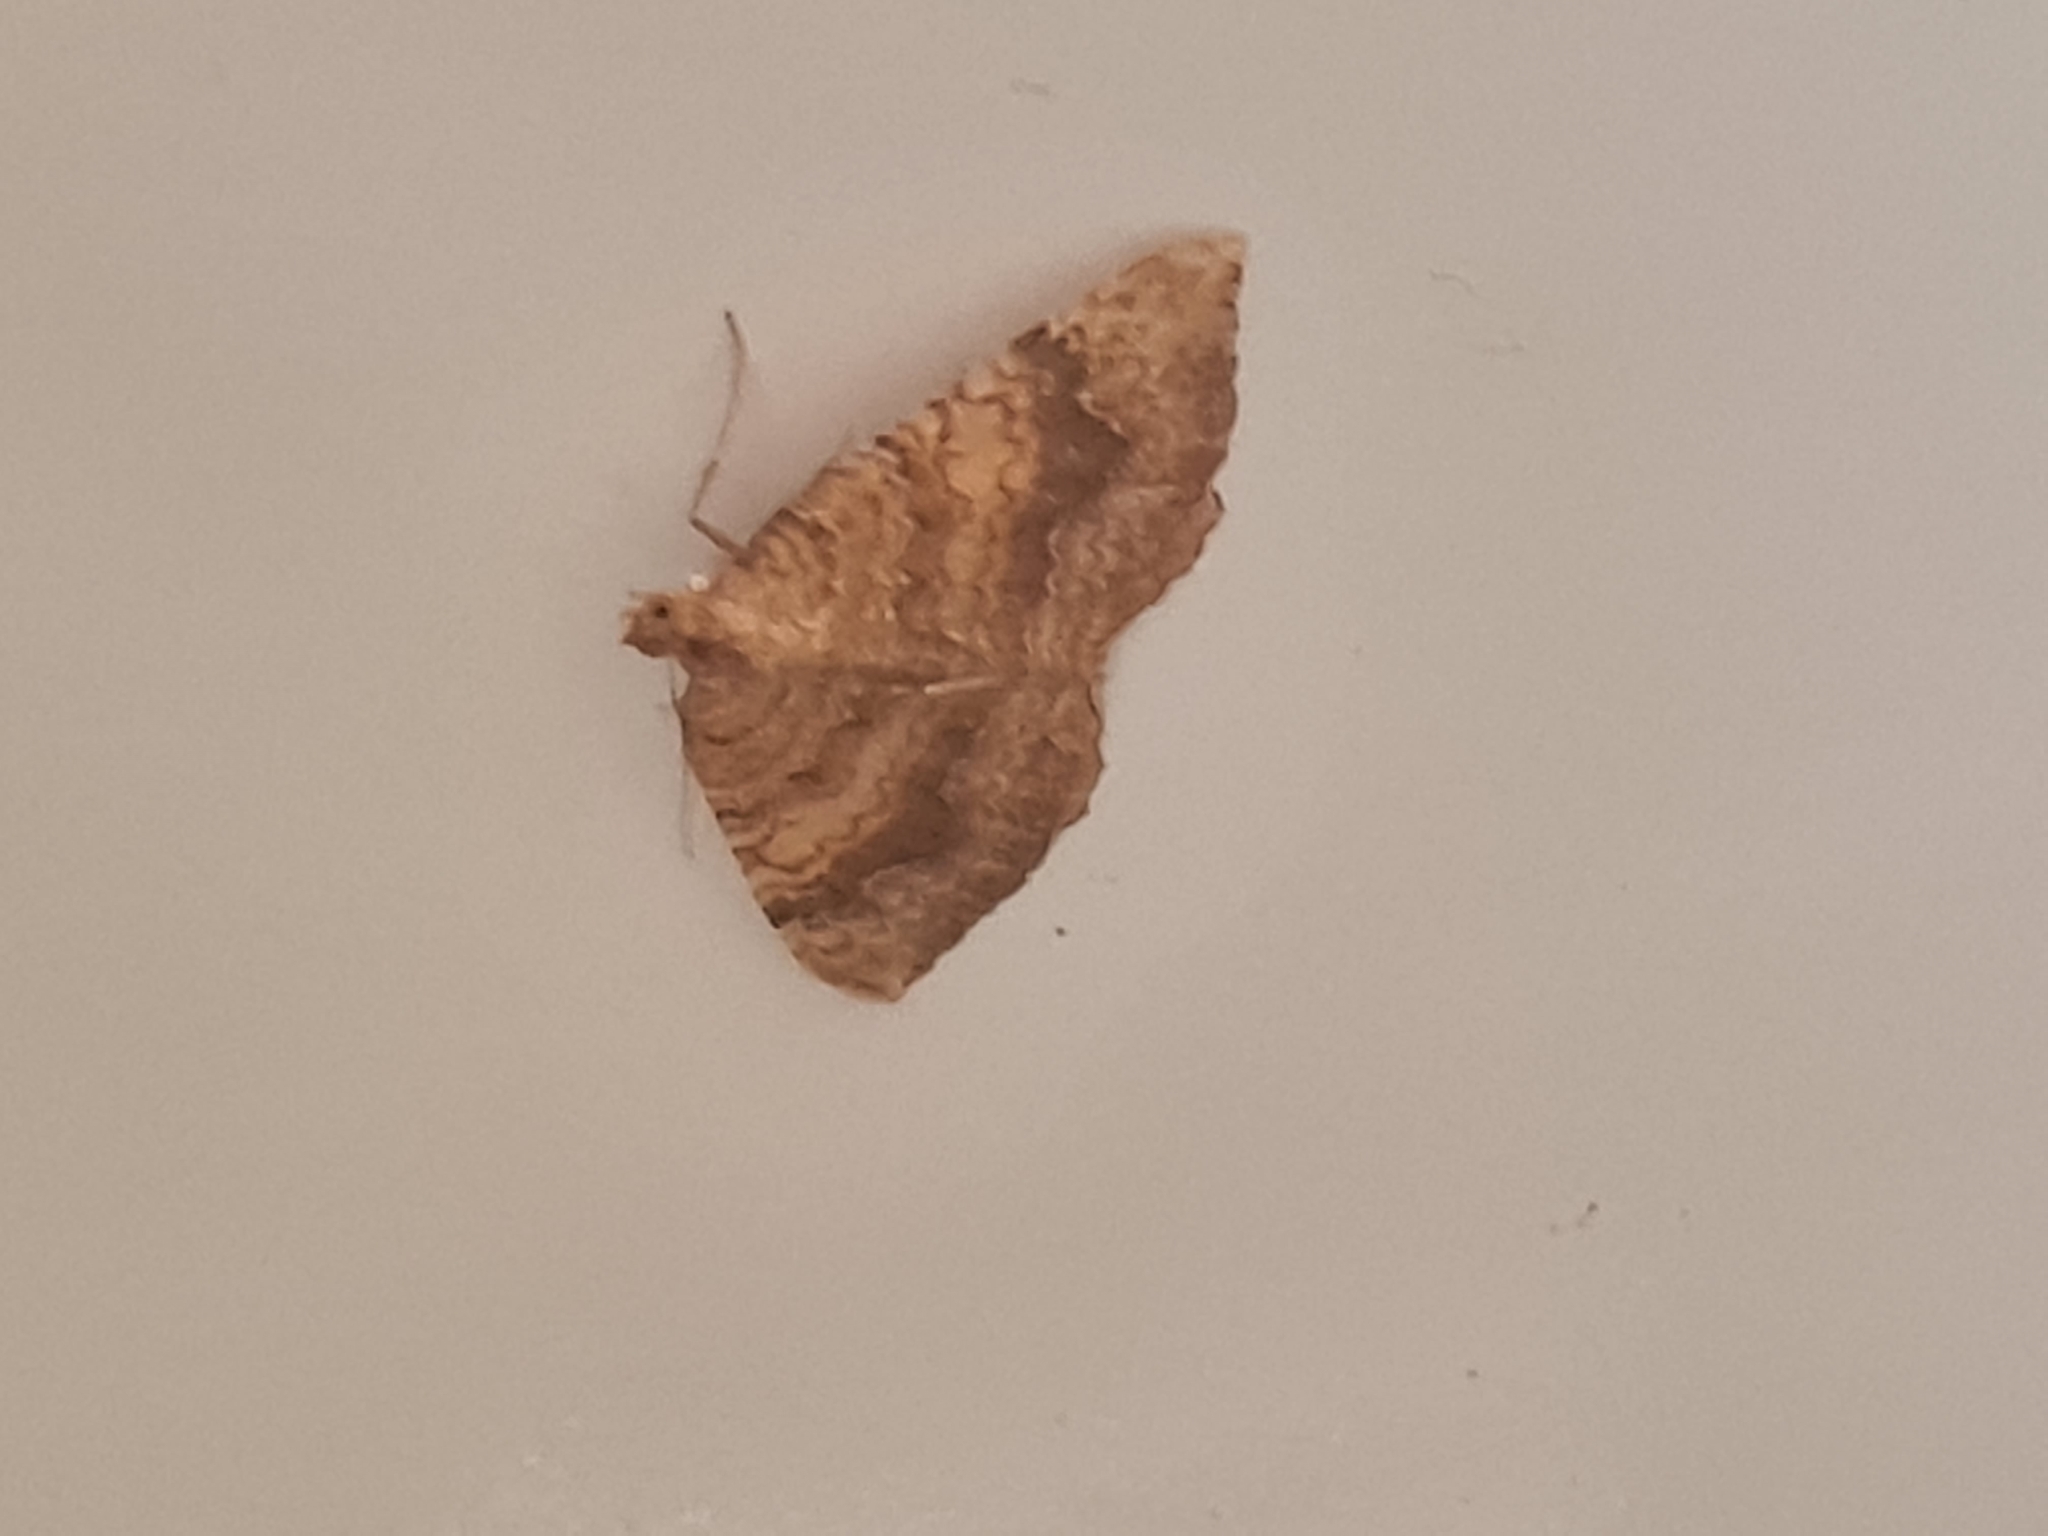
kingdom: Animalia
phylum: Arthropoda
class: Insecta
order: Lepidoptera
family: Geometridae
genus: Camptogramma
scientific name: Camptogramma bilineata
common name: Yellow shell
